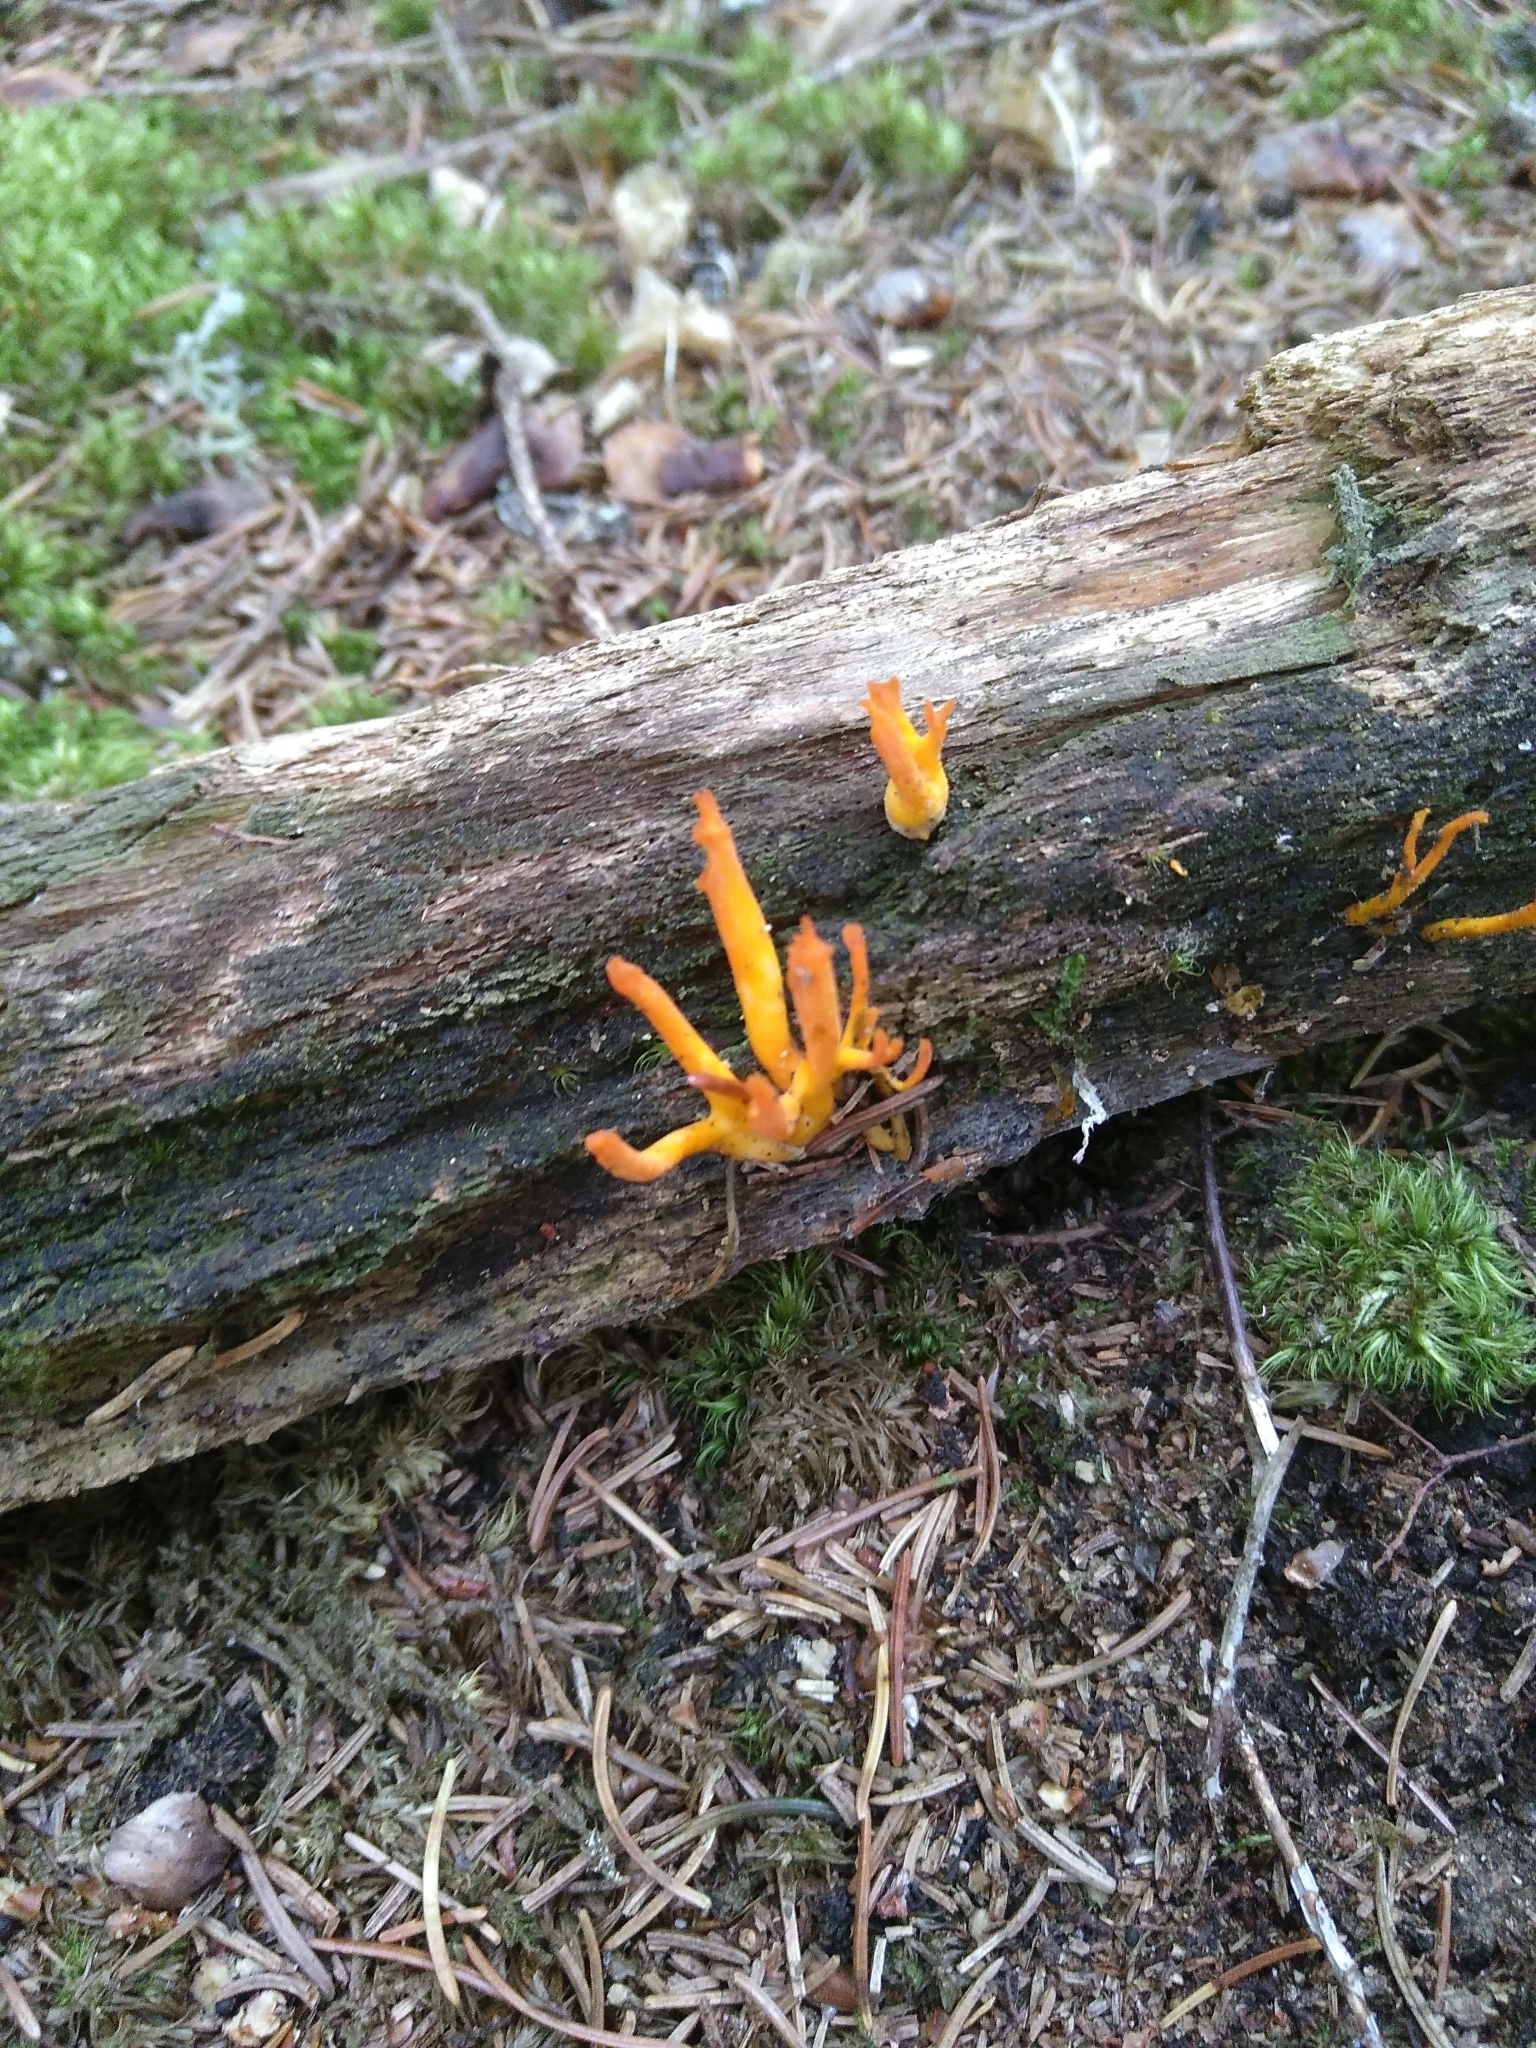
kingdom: Fungi
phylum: Basidiomycota
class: Dacrymycetes
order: Dacrymycetales
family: Dacrymycetaceae
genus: Calocera
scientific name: Calocera viscosa
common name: Yellow stagshorn
